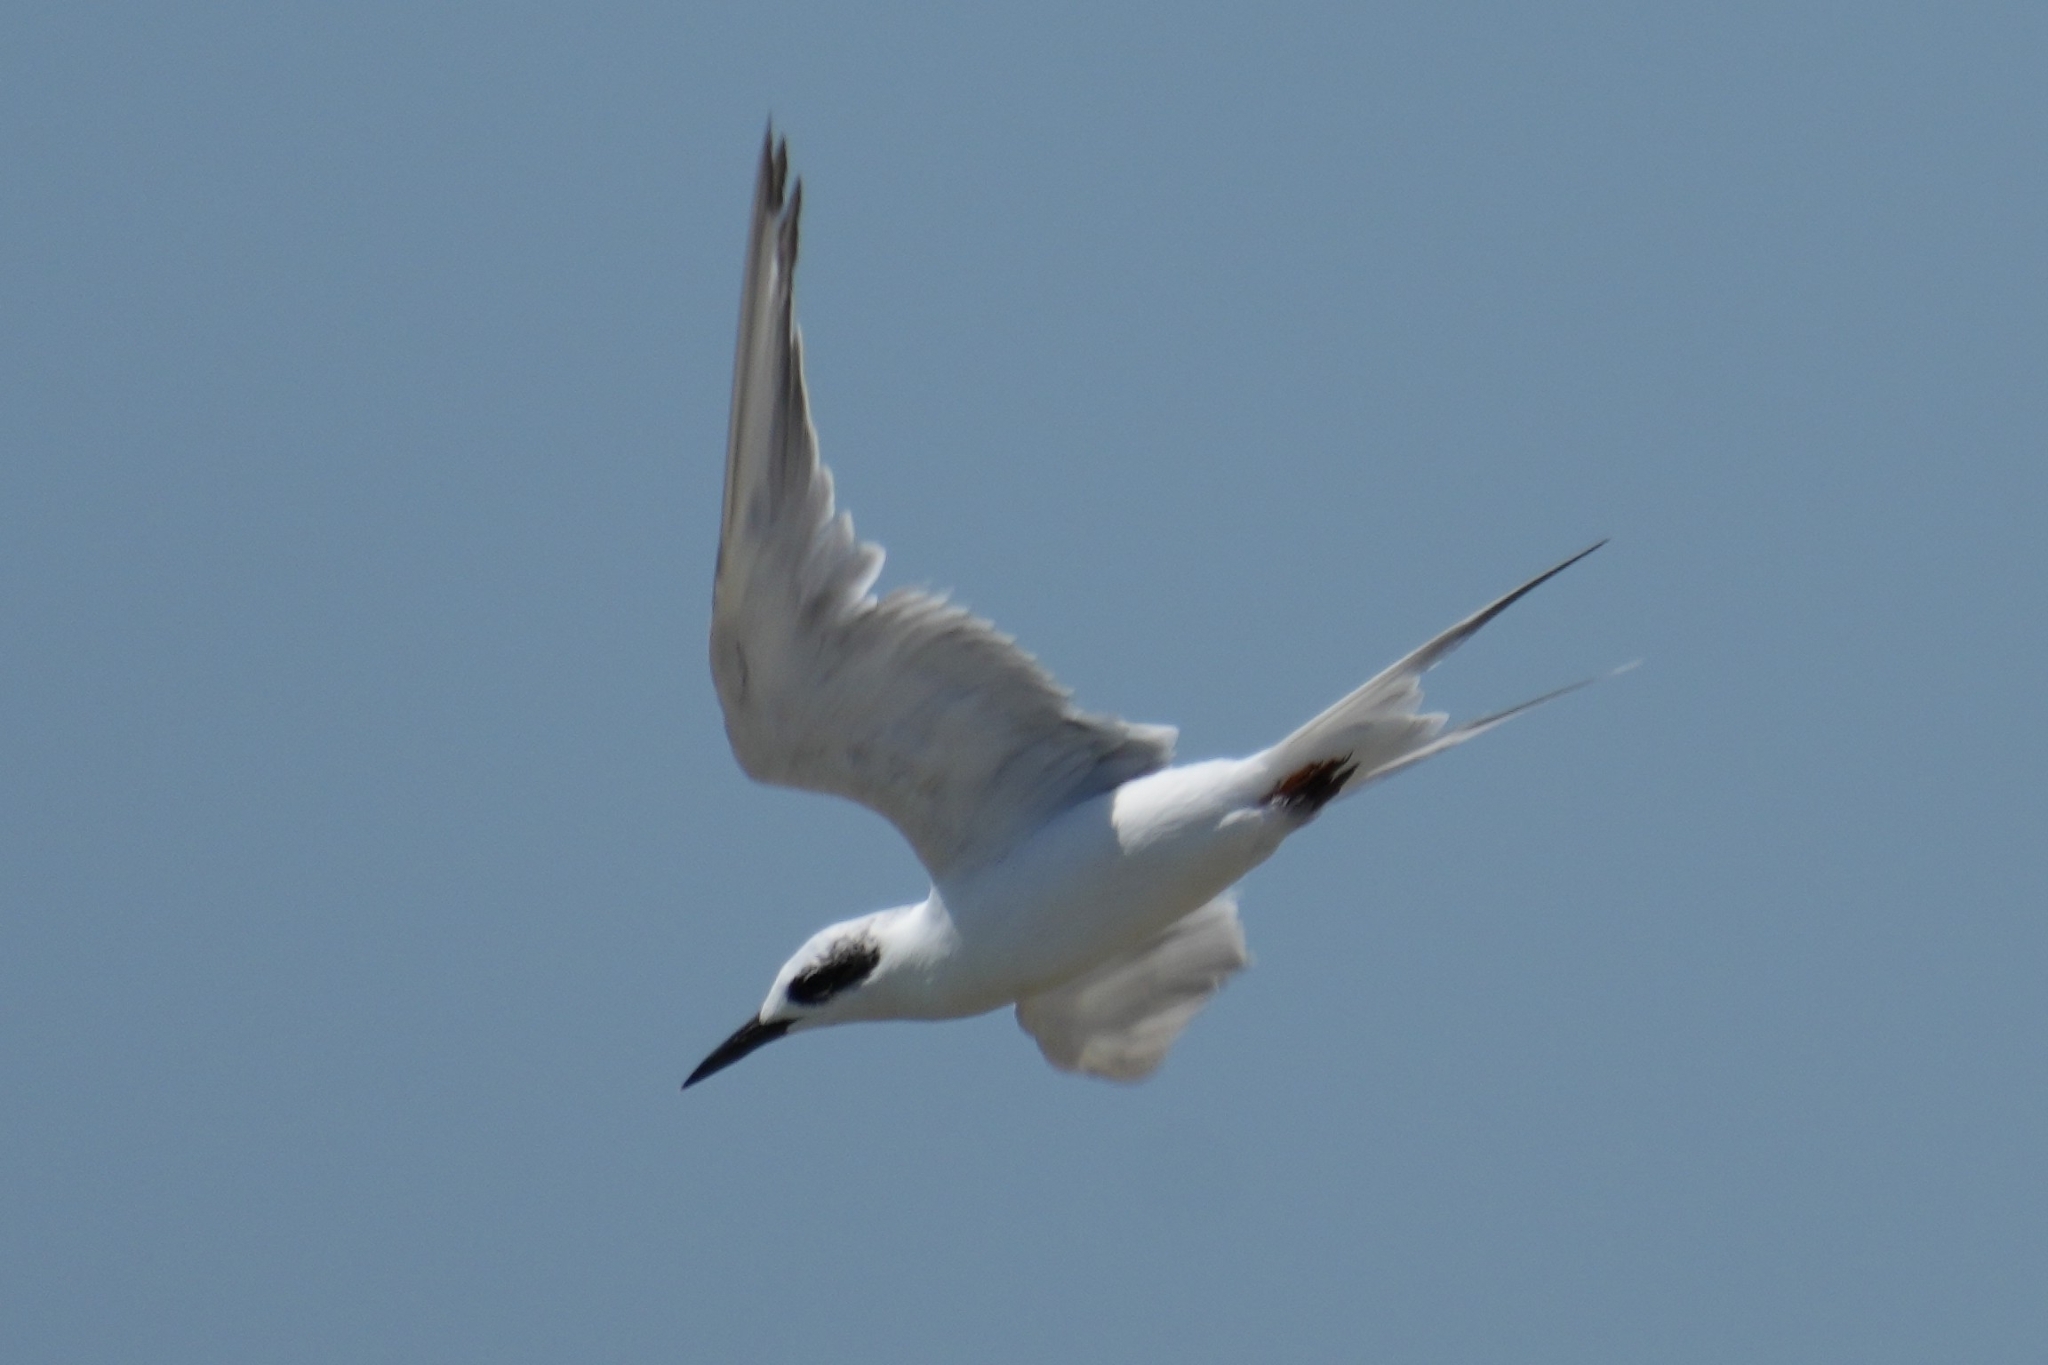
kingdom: Animalia
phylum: Chordata
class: Aves
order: Charadriiformes
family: Laridae
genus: Sterna
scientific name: Sterna forsteri
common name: Forster's tern
